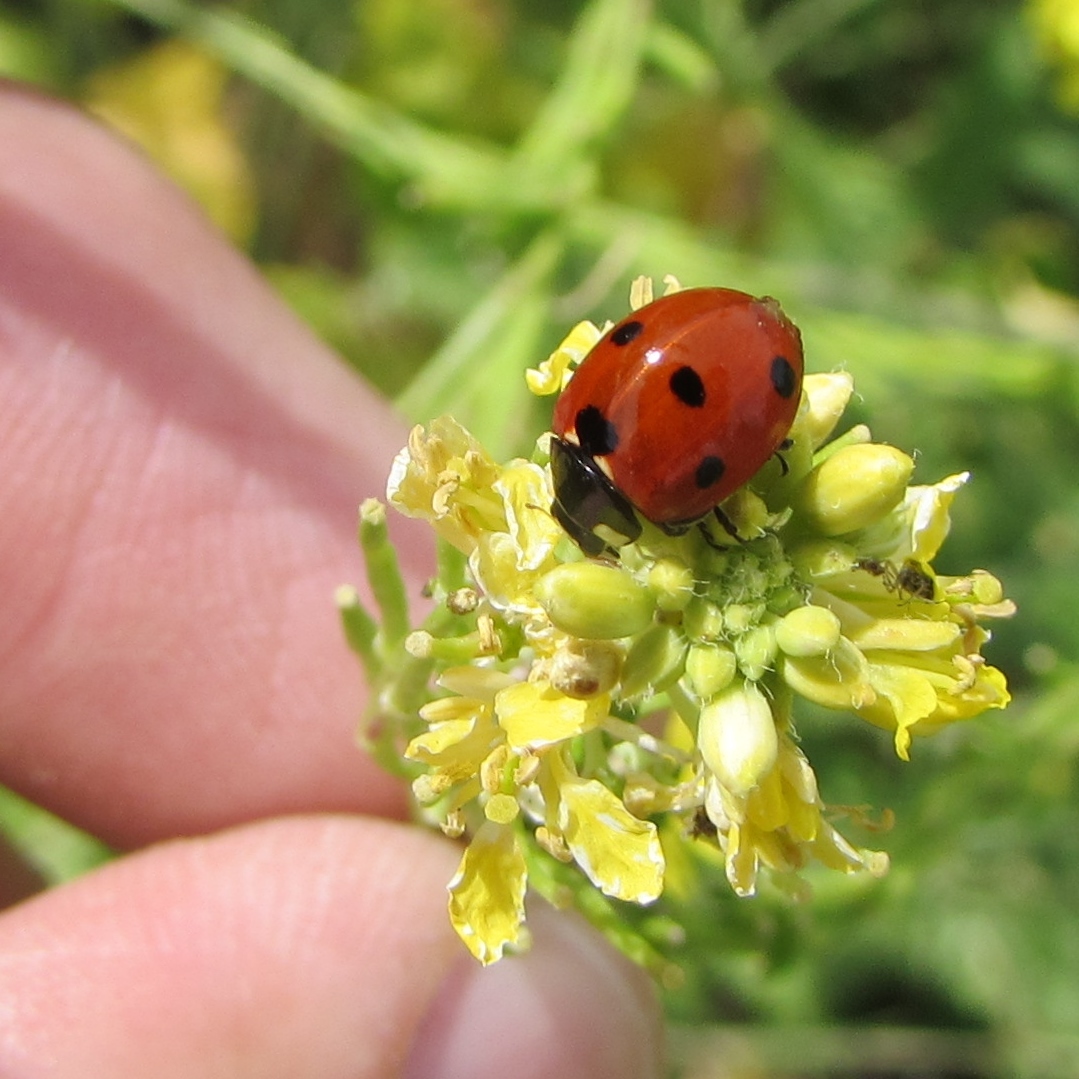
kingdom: Animalia
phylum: Arthropoda
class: Insecta
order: Coleoptera
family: Coccinellidae
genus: Coccinella
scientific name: Coccinella septempunctata
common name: Sevenspotted lady beetle
